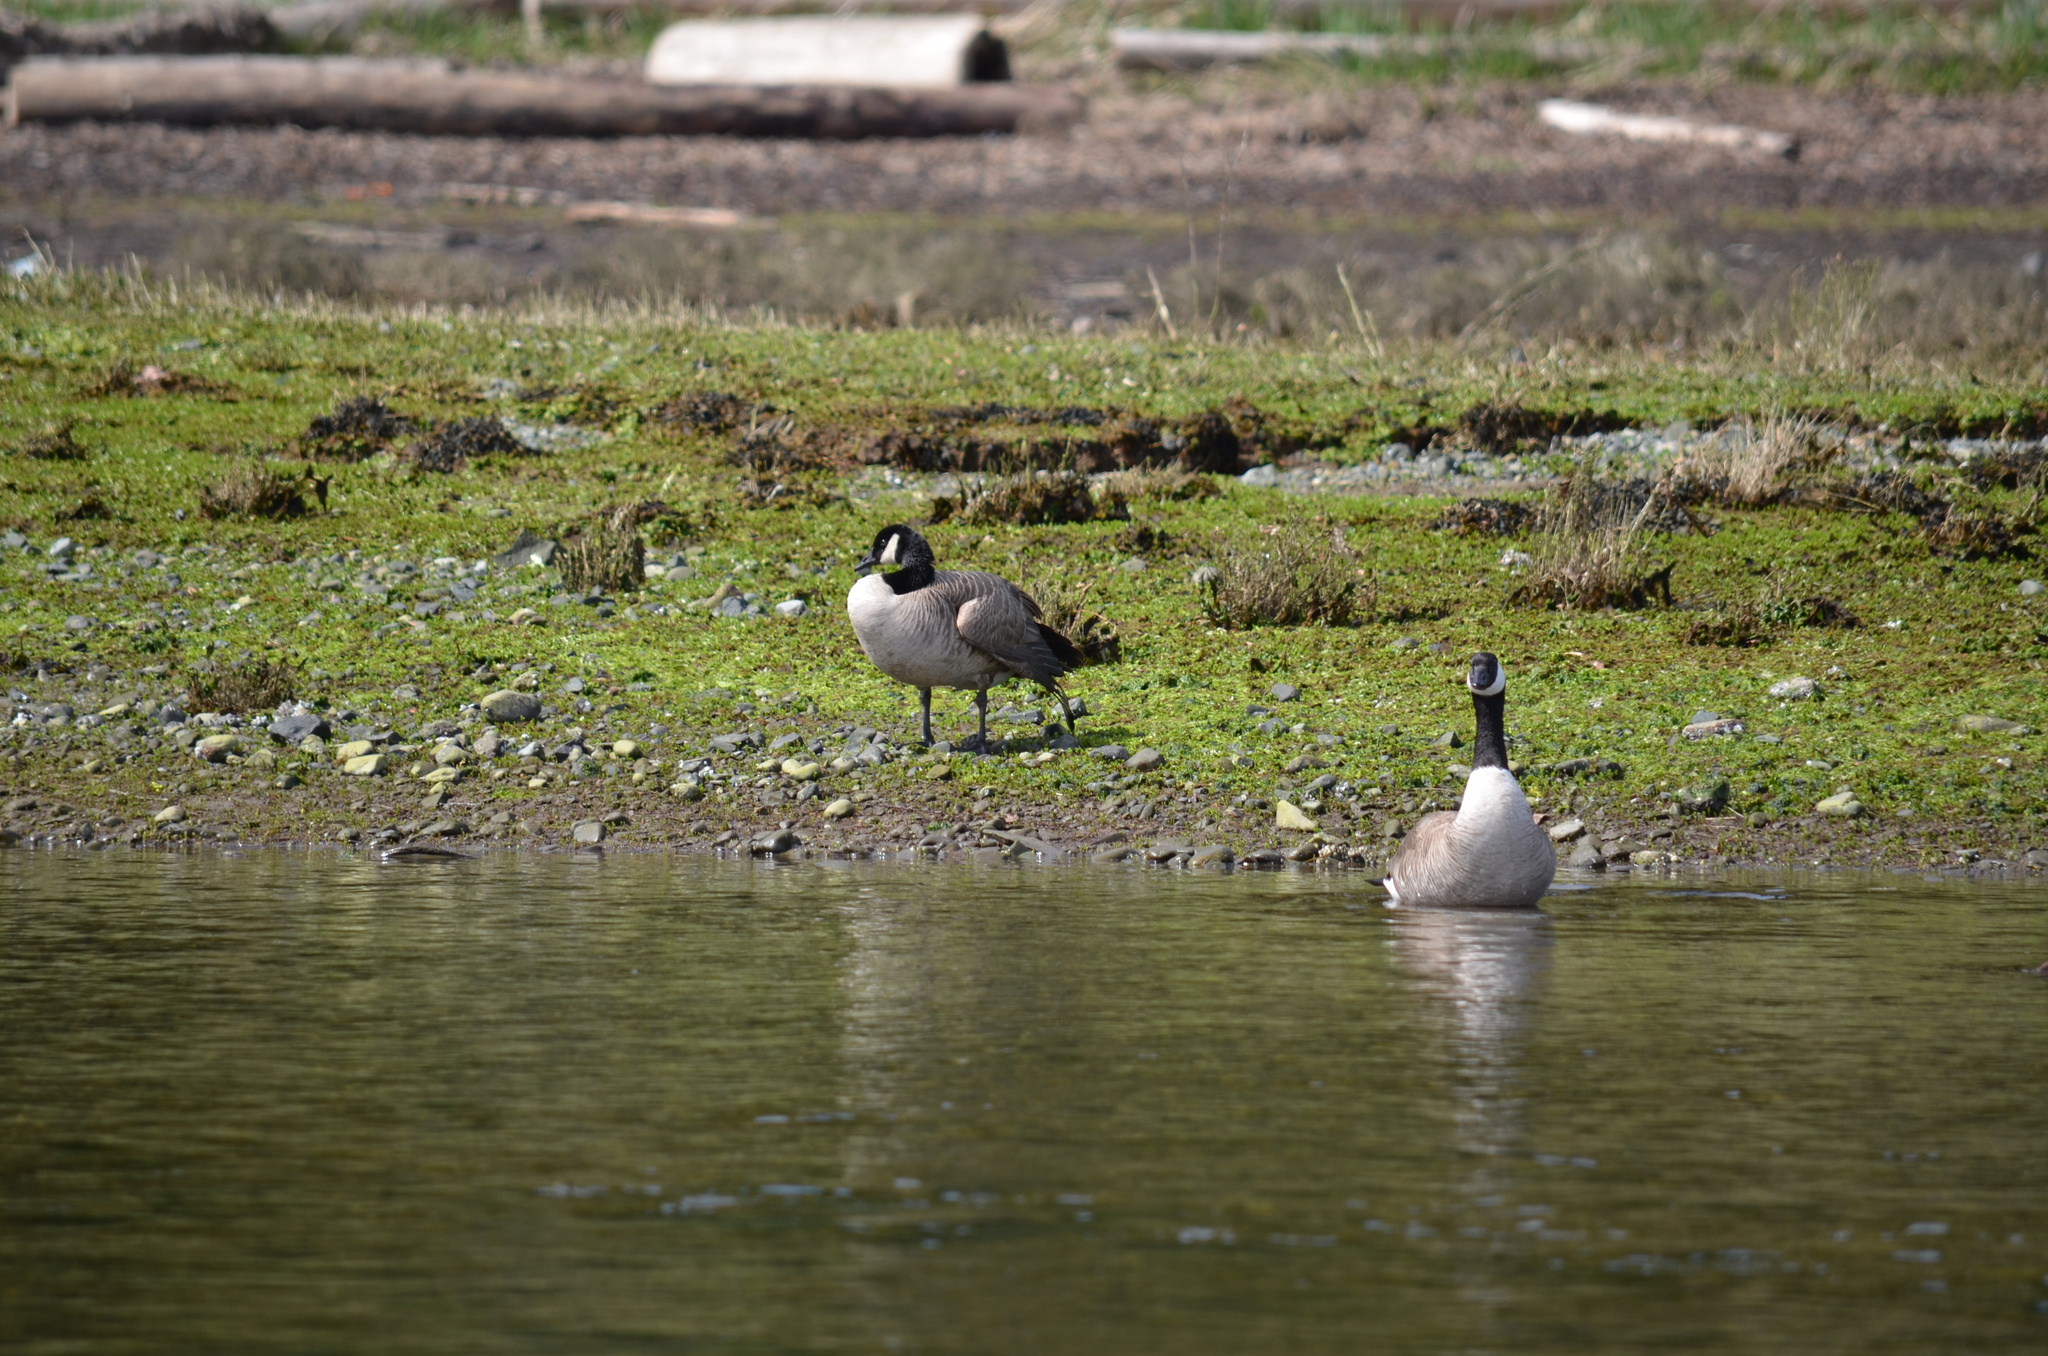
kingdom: Animalia
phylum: Chordata
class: Aves
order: Anseriformes
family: Anatidae
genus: Branta
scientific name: Branta canadensis
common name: Canada goose
